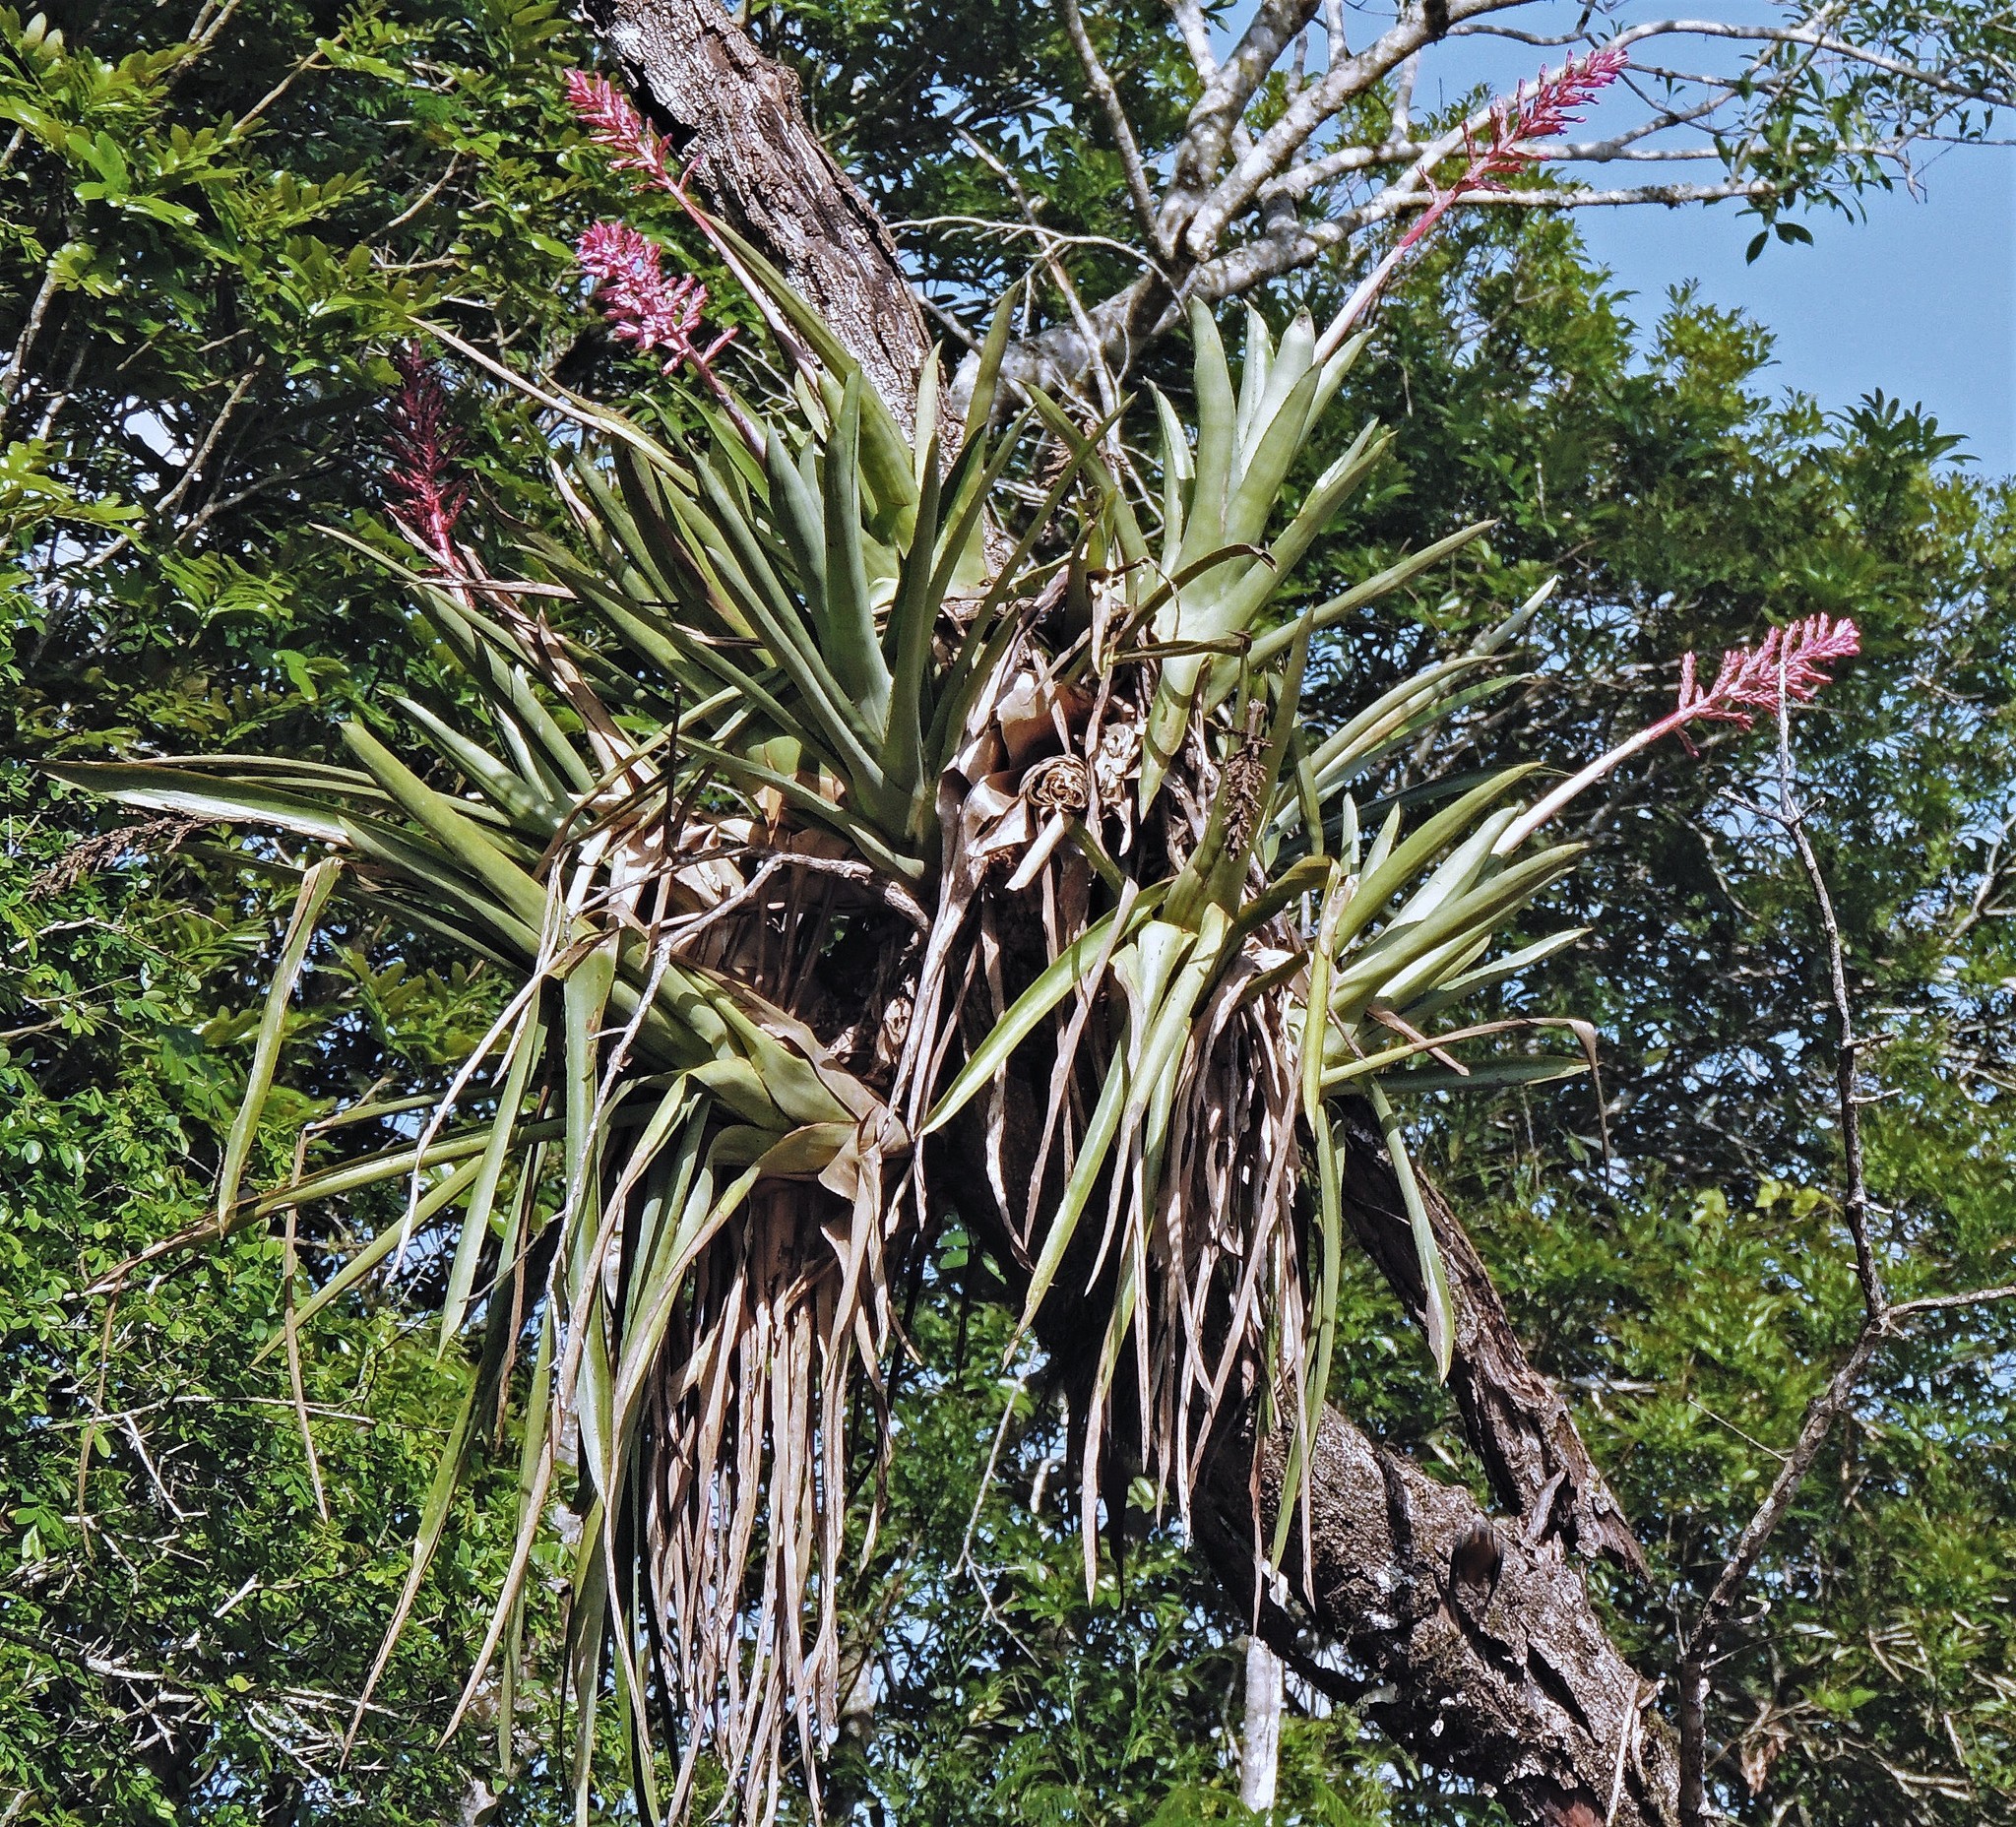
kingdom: Plantae
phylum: Tracheophyta
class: Liliopsida
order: Poales
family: Bromeliaceae
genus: Aechmea
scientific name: Aechmea distichantha
